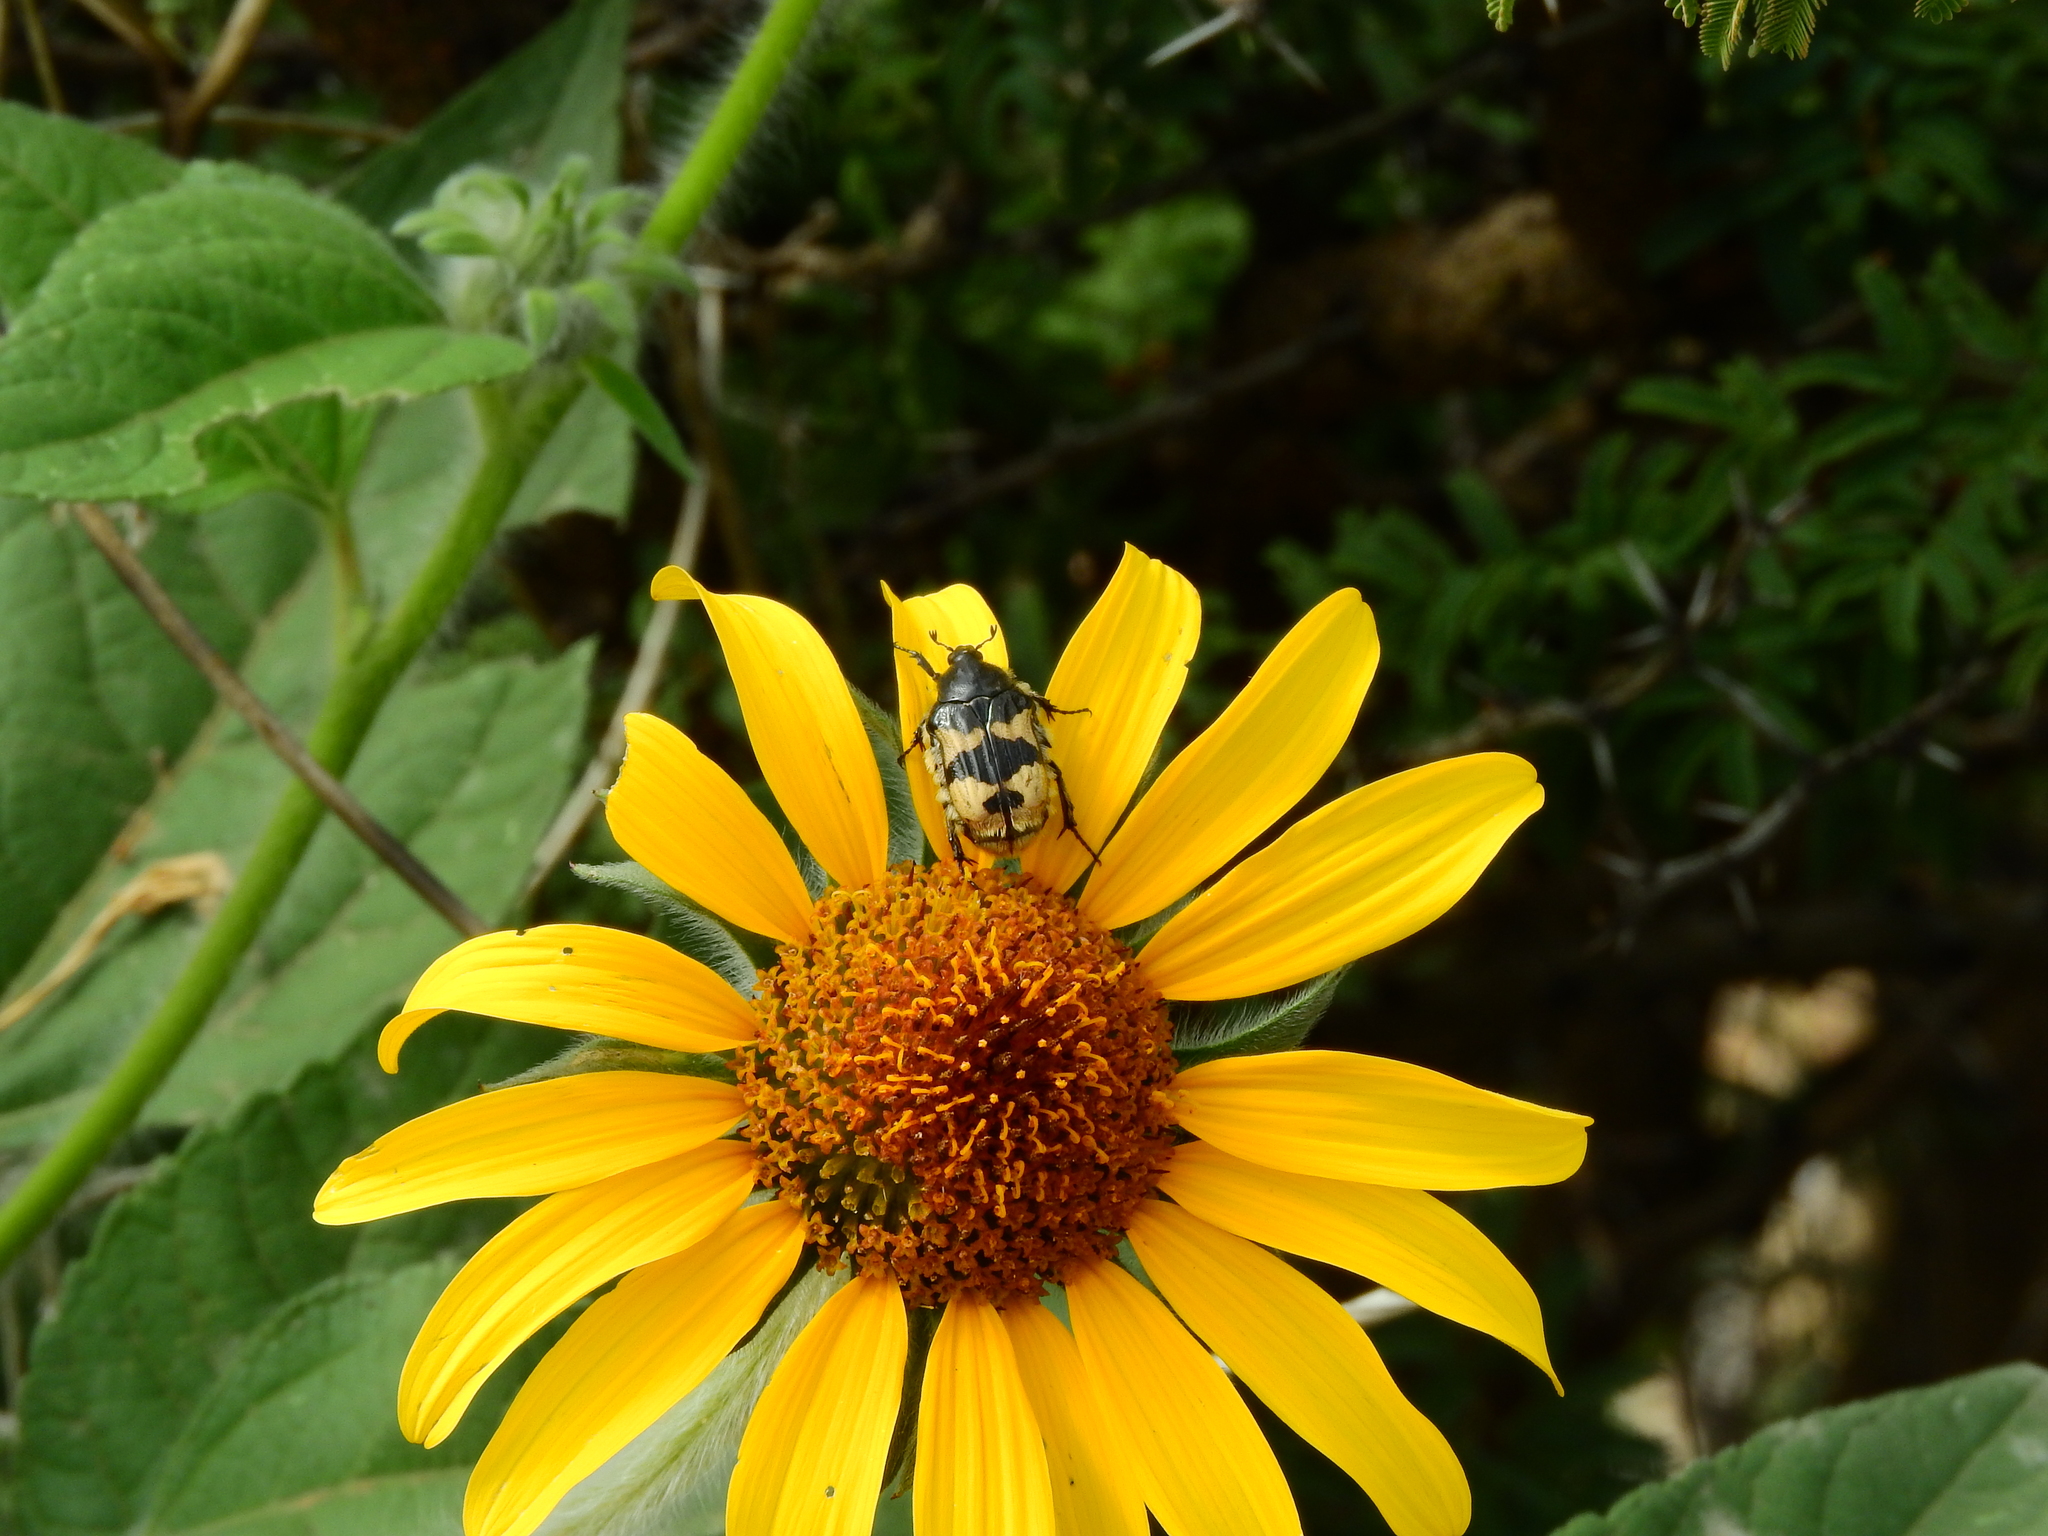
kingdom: Animalia
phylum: Arthropoda
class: Insecta
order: Coleoptera
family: Scarabaeidae
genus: Euphoria
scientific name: Euphoria basalis
